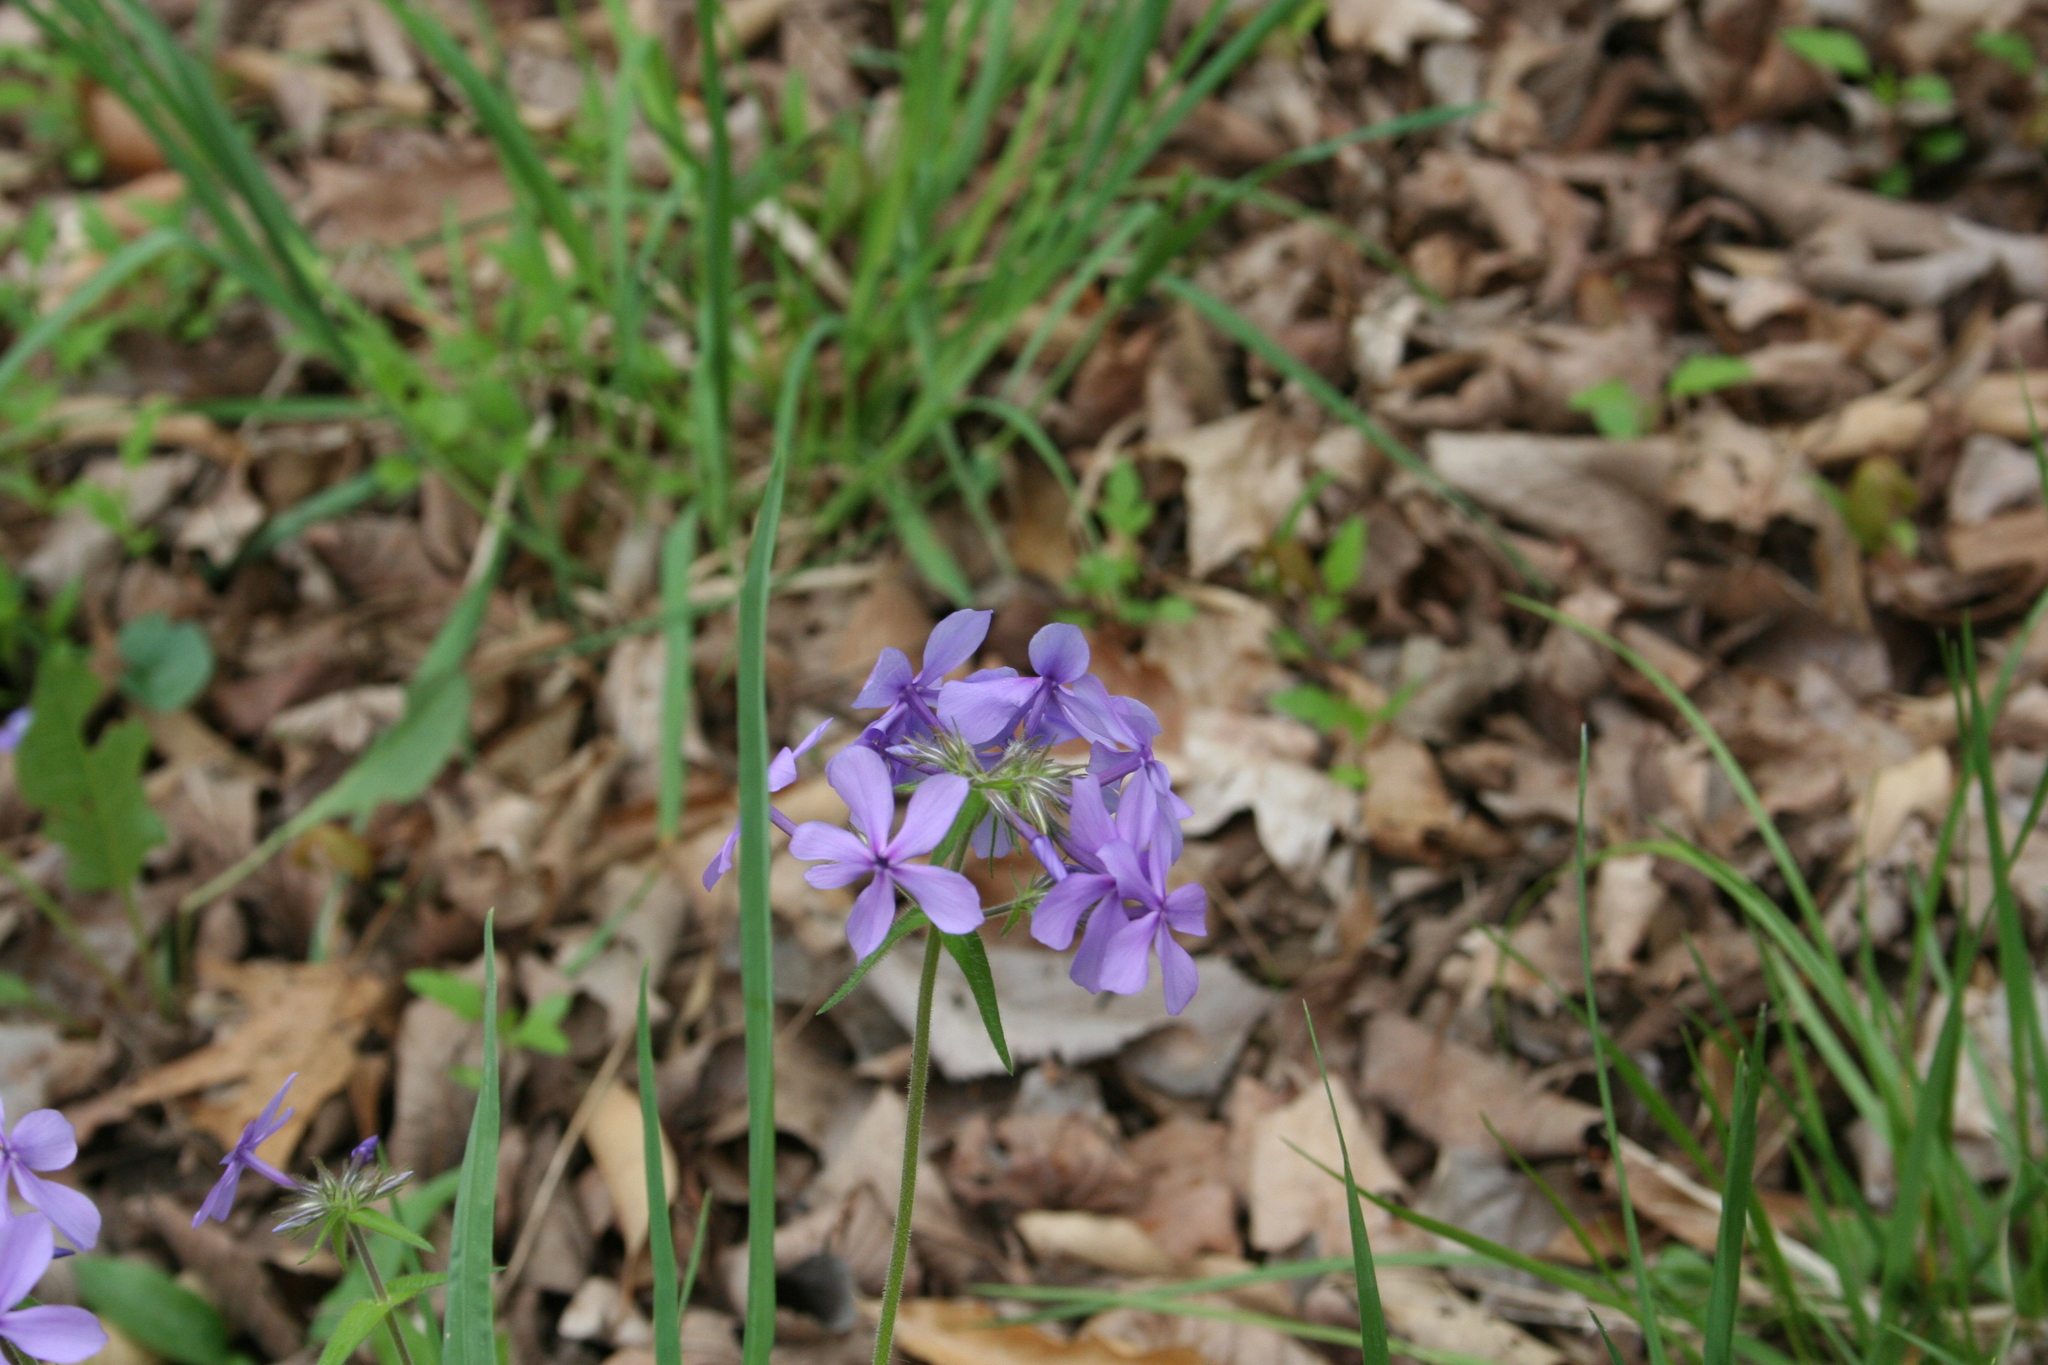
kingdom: Plantae
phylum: Tracheophyta
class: Magnoliopsida
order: Ericales
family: Polemoniaceae
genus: Phlox
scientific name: Phlox divaricata
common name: Blue phlox
